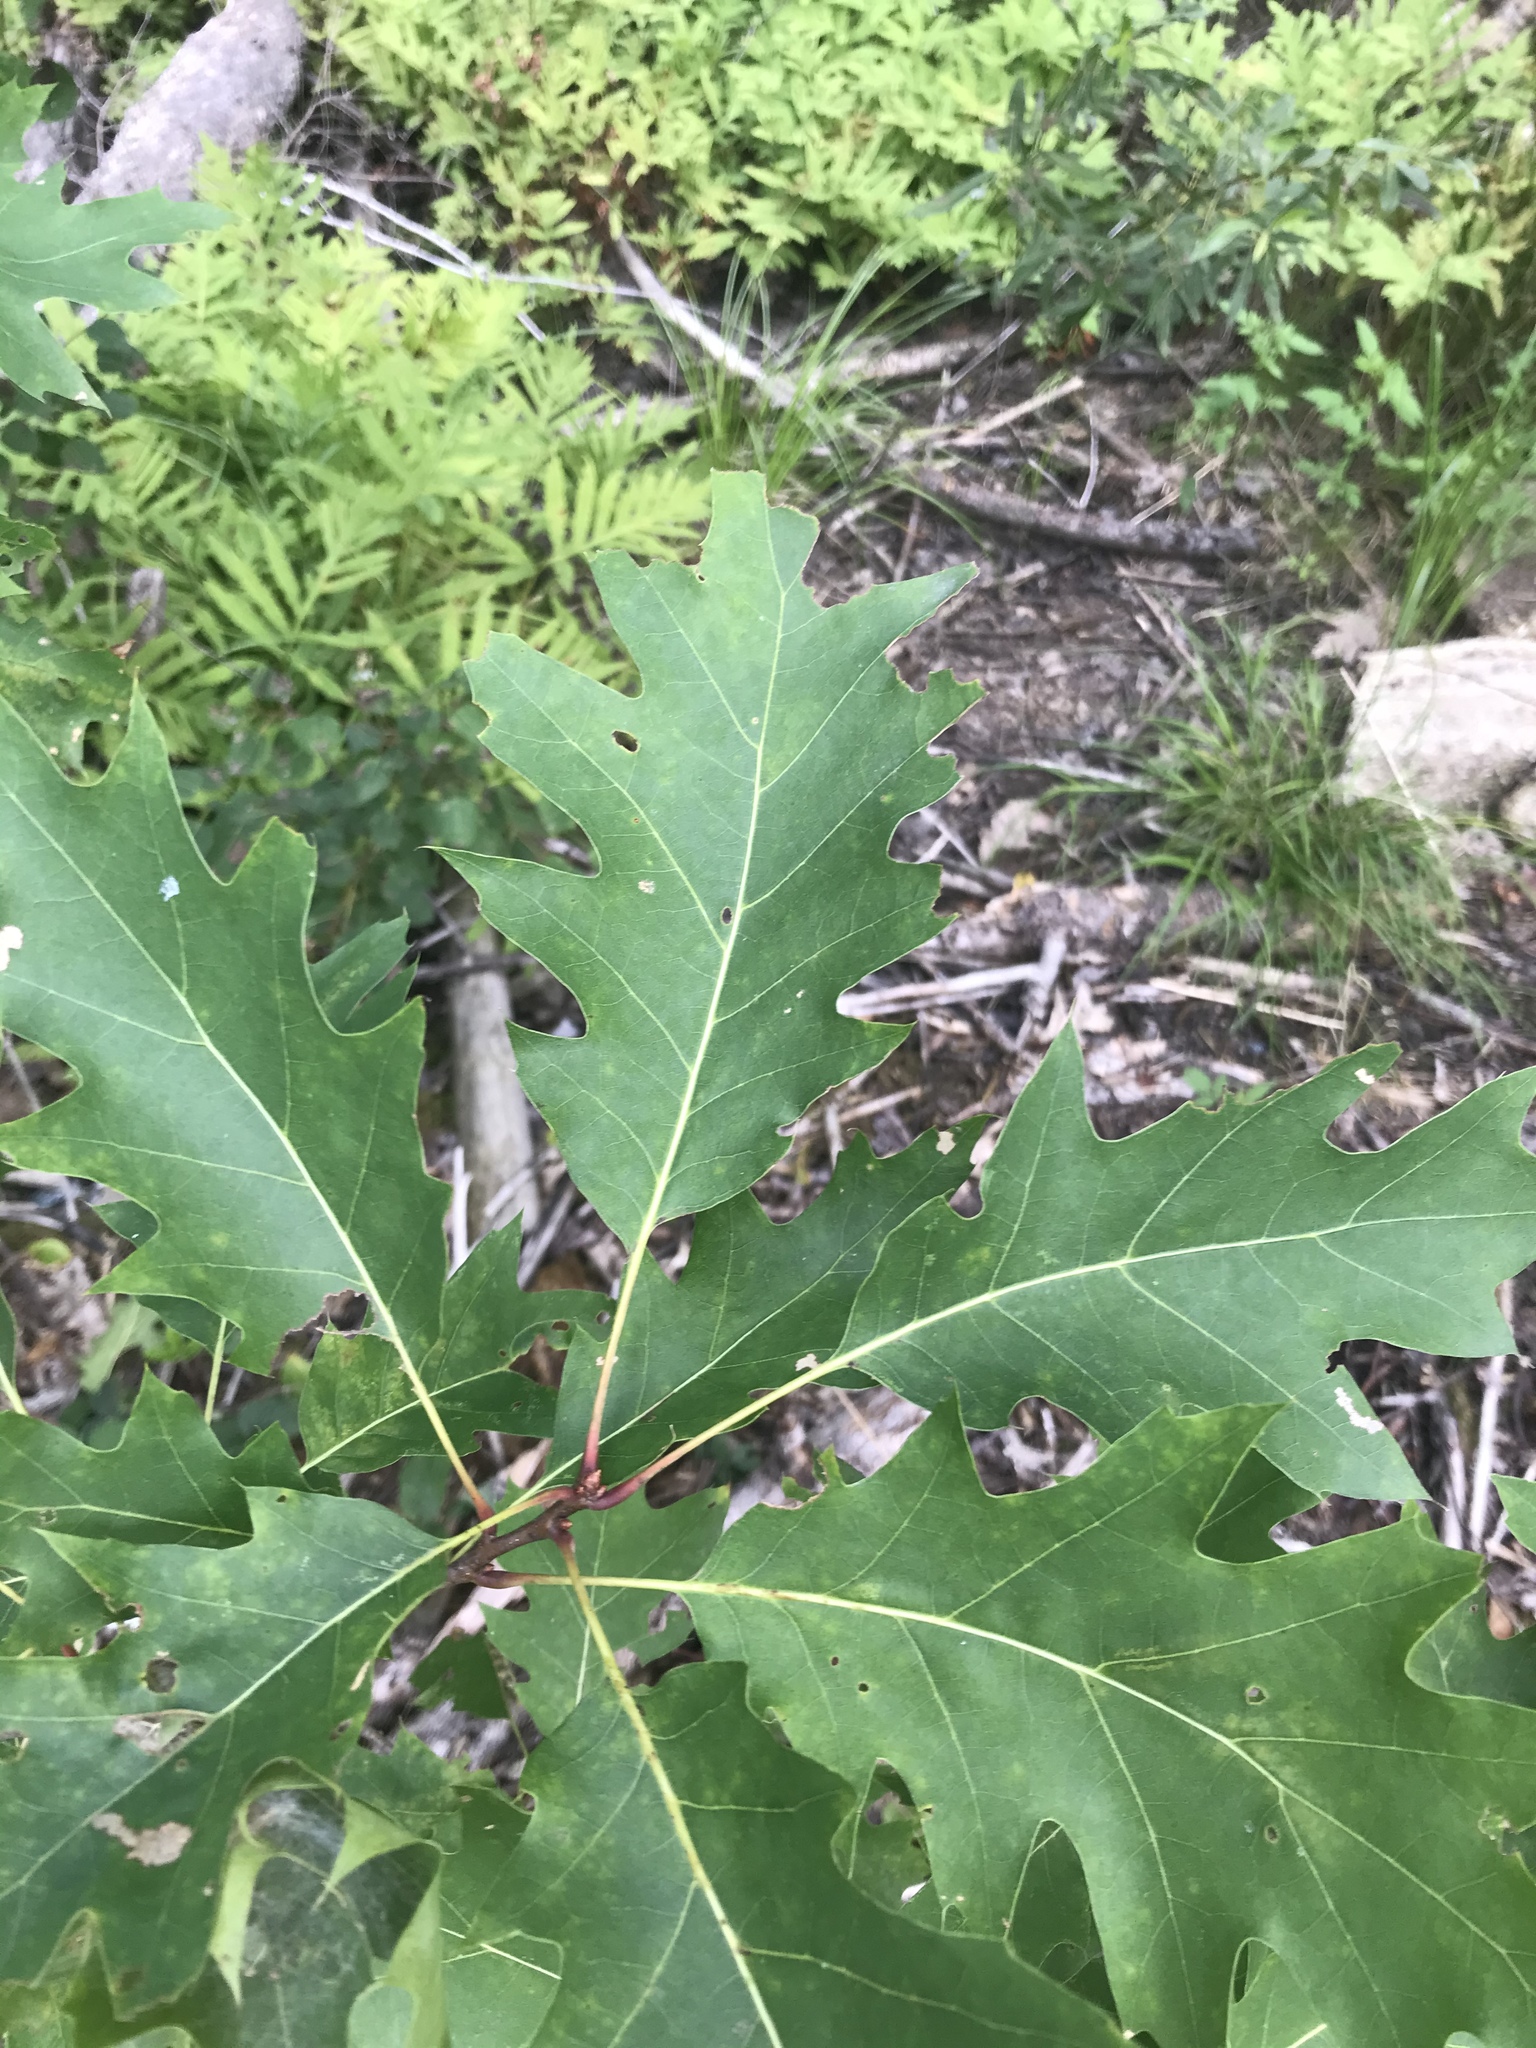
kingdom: Plantae
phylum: Tracheophyta
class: Magnoliopsida
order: Fagales
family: Fagaceae
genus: Quercus
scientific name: Quercus rubra
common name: Red oak
